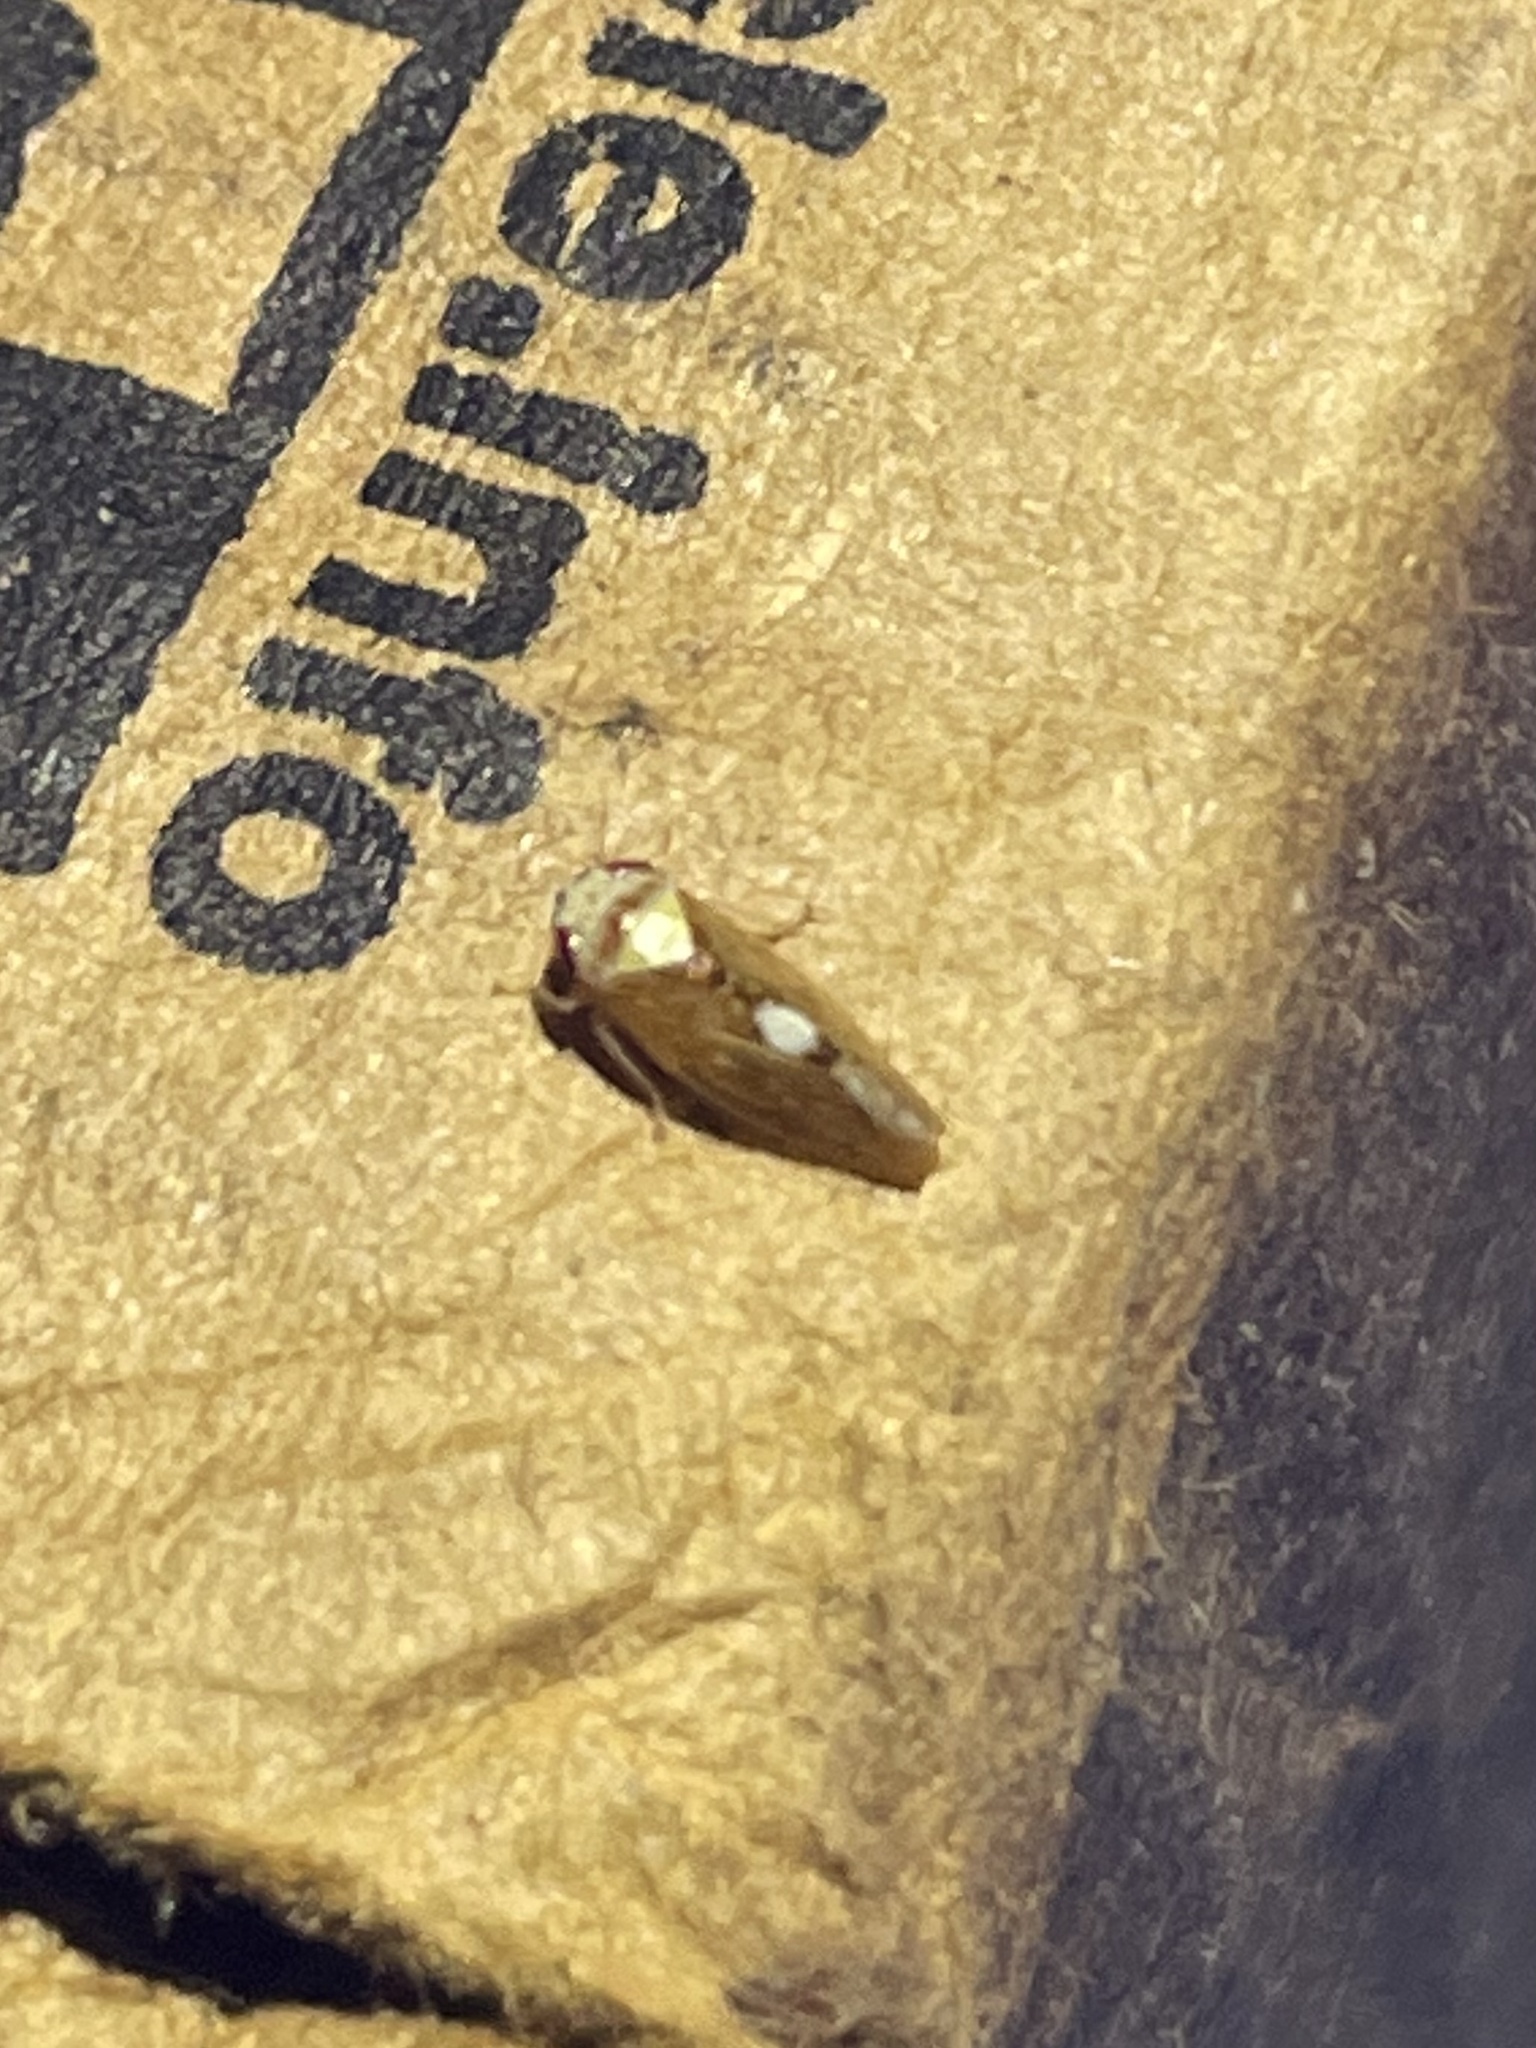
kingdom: Animalia
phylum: Arthropoda
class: Insecta
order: Hemiptera
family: Cicadellidae
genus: Eutettix
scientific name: Eutettix pictus
